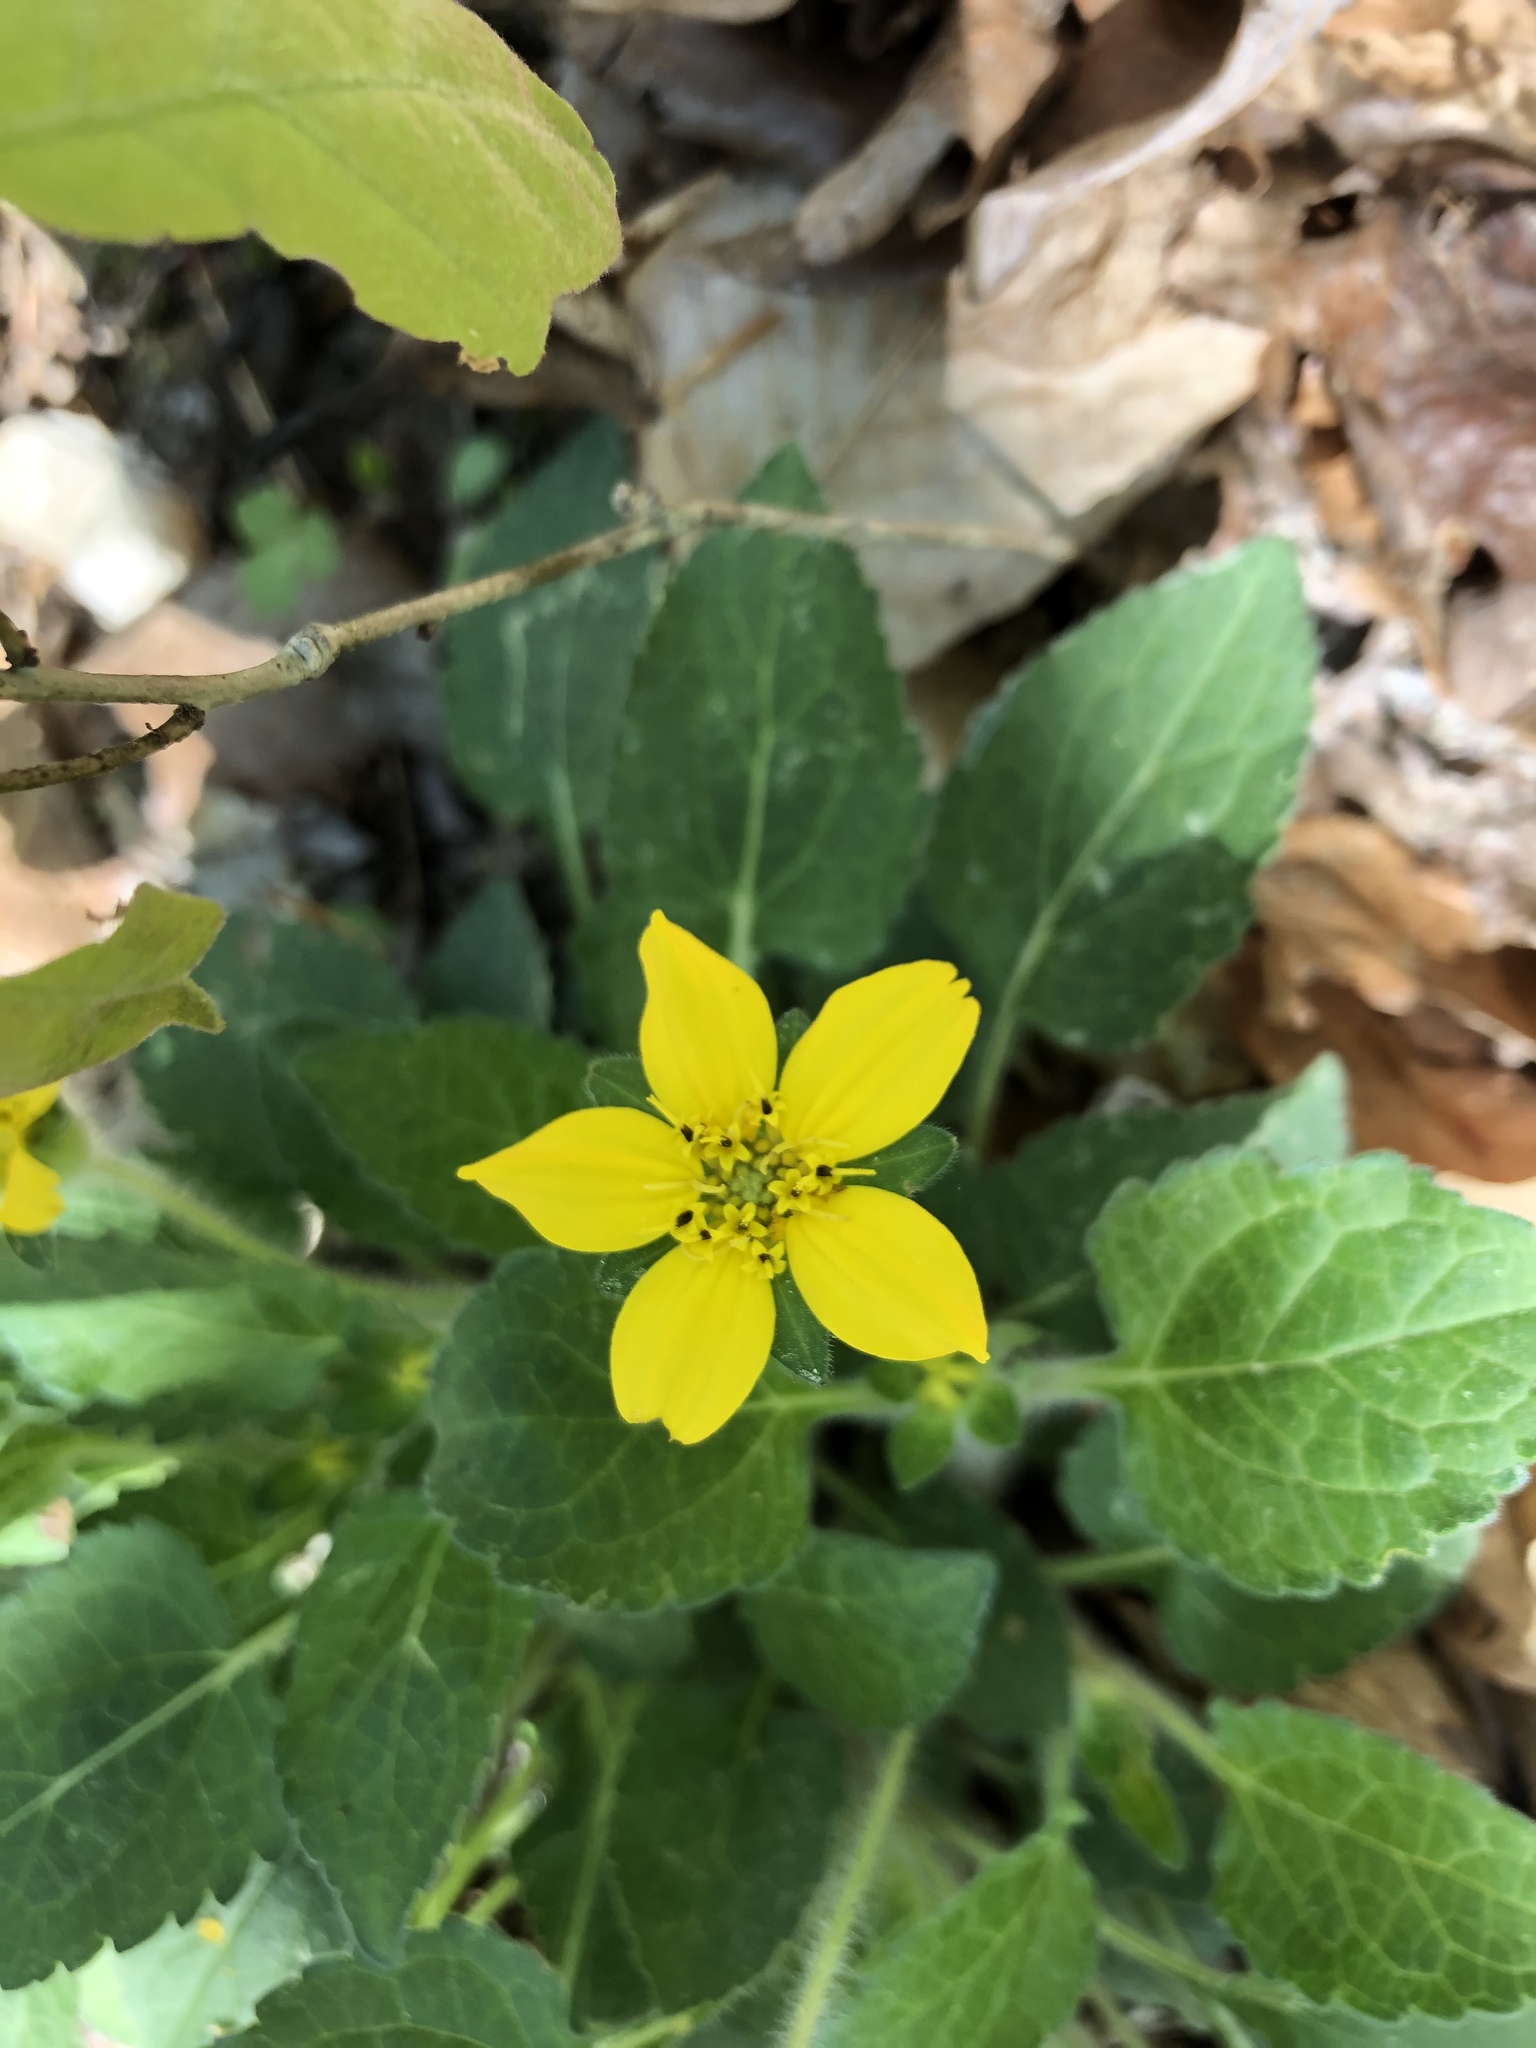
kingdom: Plantae
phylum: Tracheophyta
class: Magnoliopsida
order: Asterales
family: Asteraceae
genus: Chrysogonum
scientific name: Chrysogonum virginianum
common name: Golden-knee
